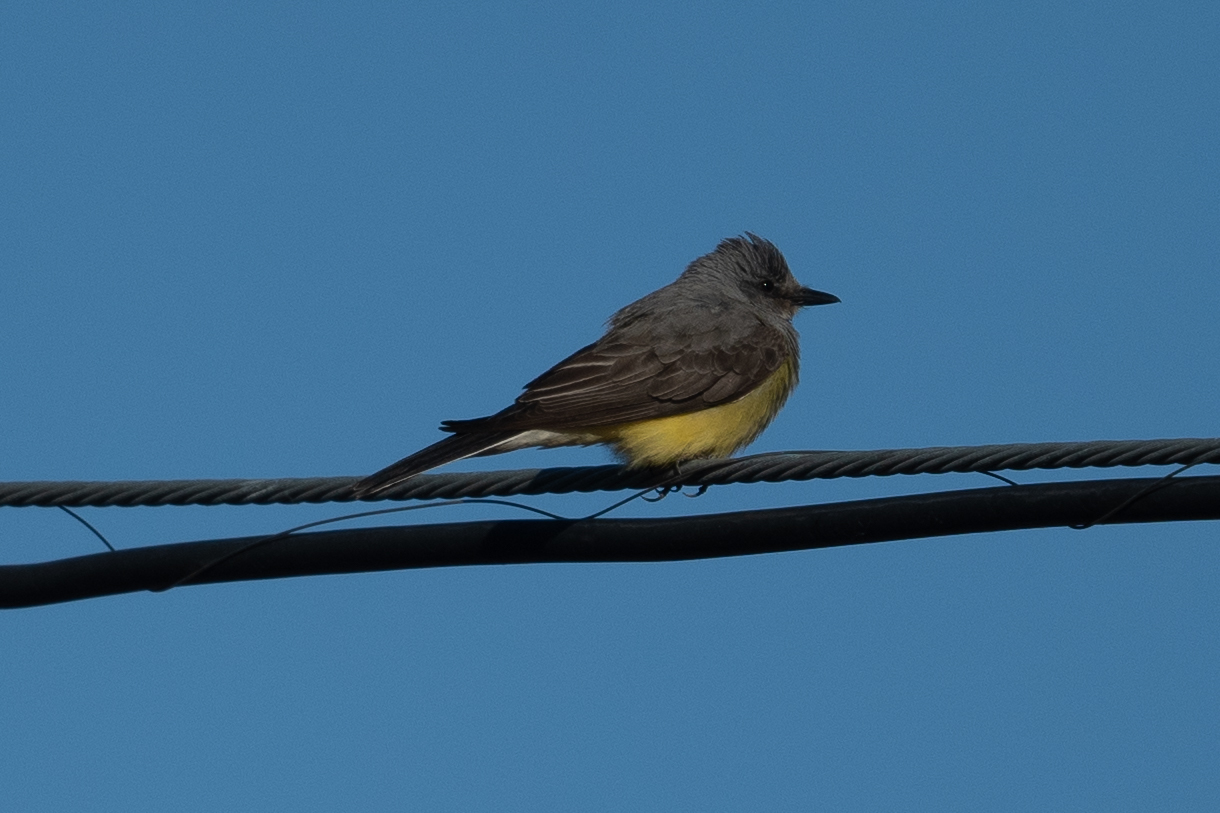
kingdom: Animalia
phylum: Chordata
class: Aves
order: Passeriformes
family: Tyrannidae
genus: Tyrannus
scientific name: Tyrannus verticalis
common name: Western kingbird
